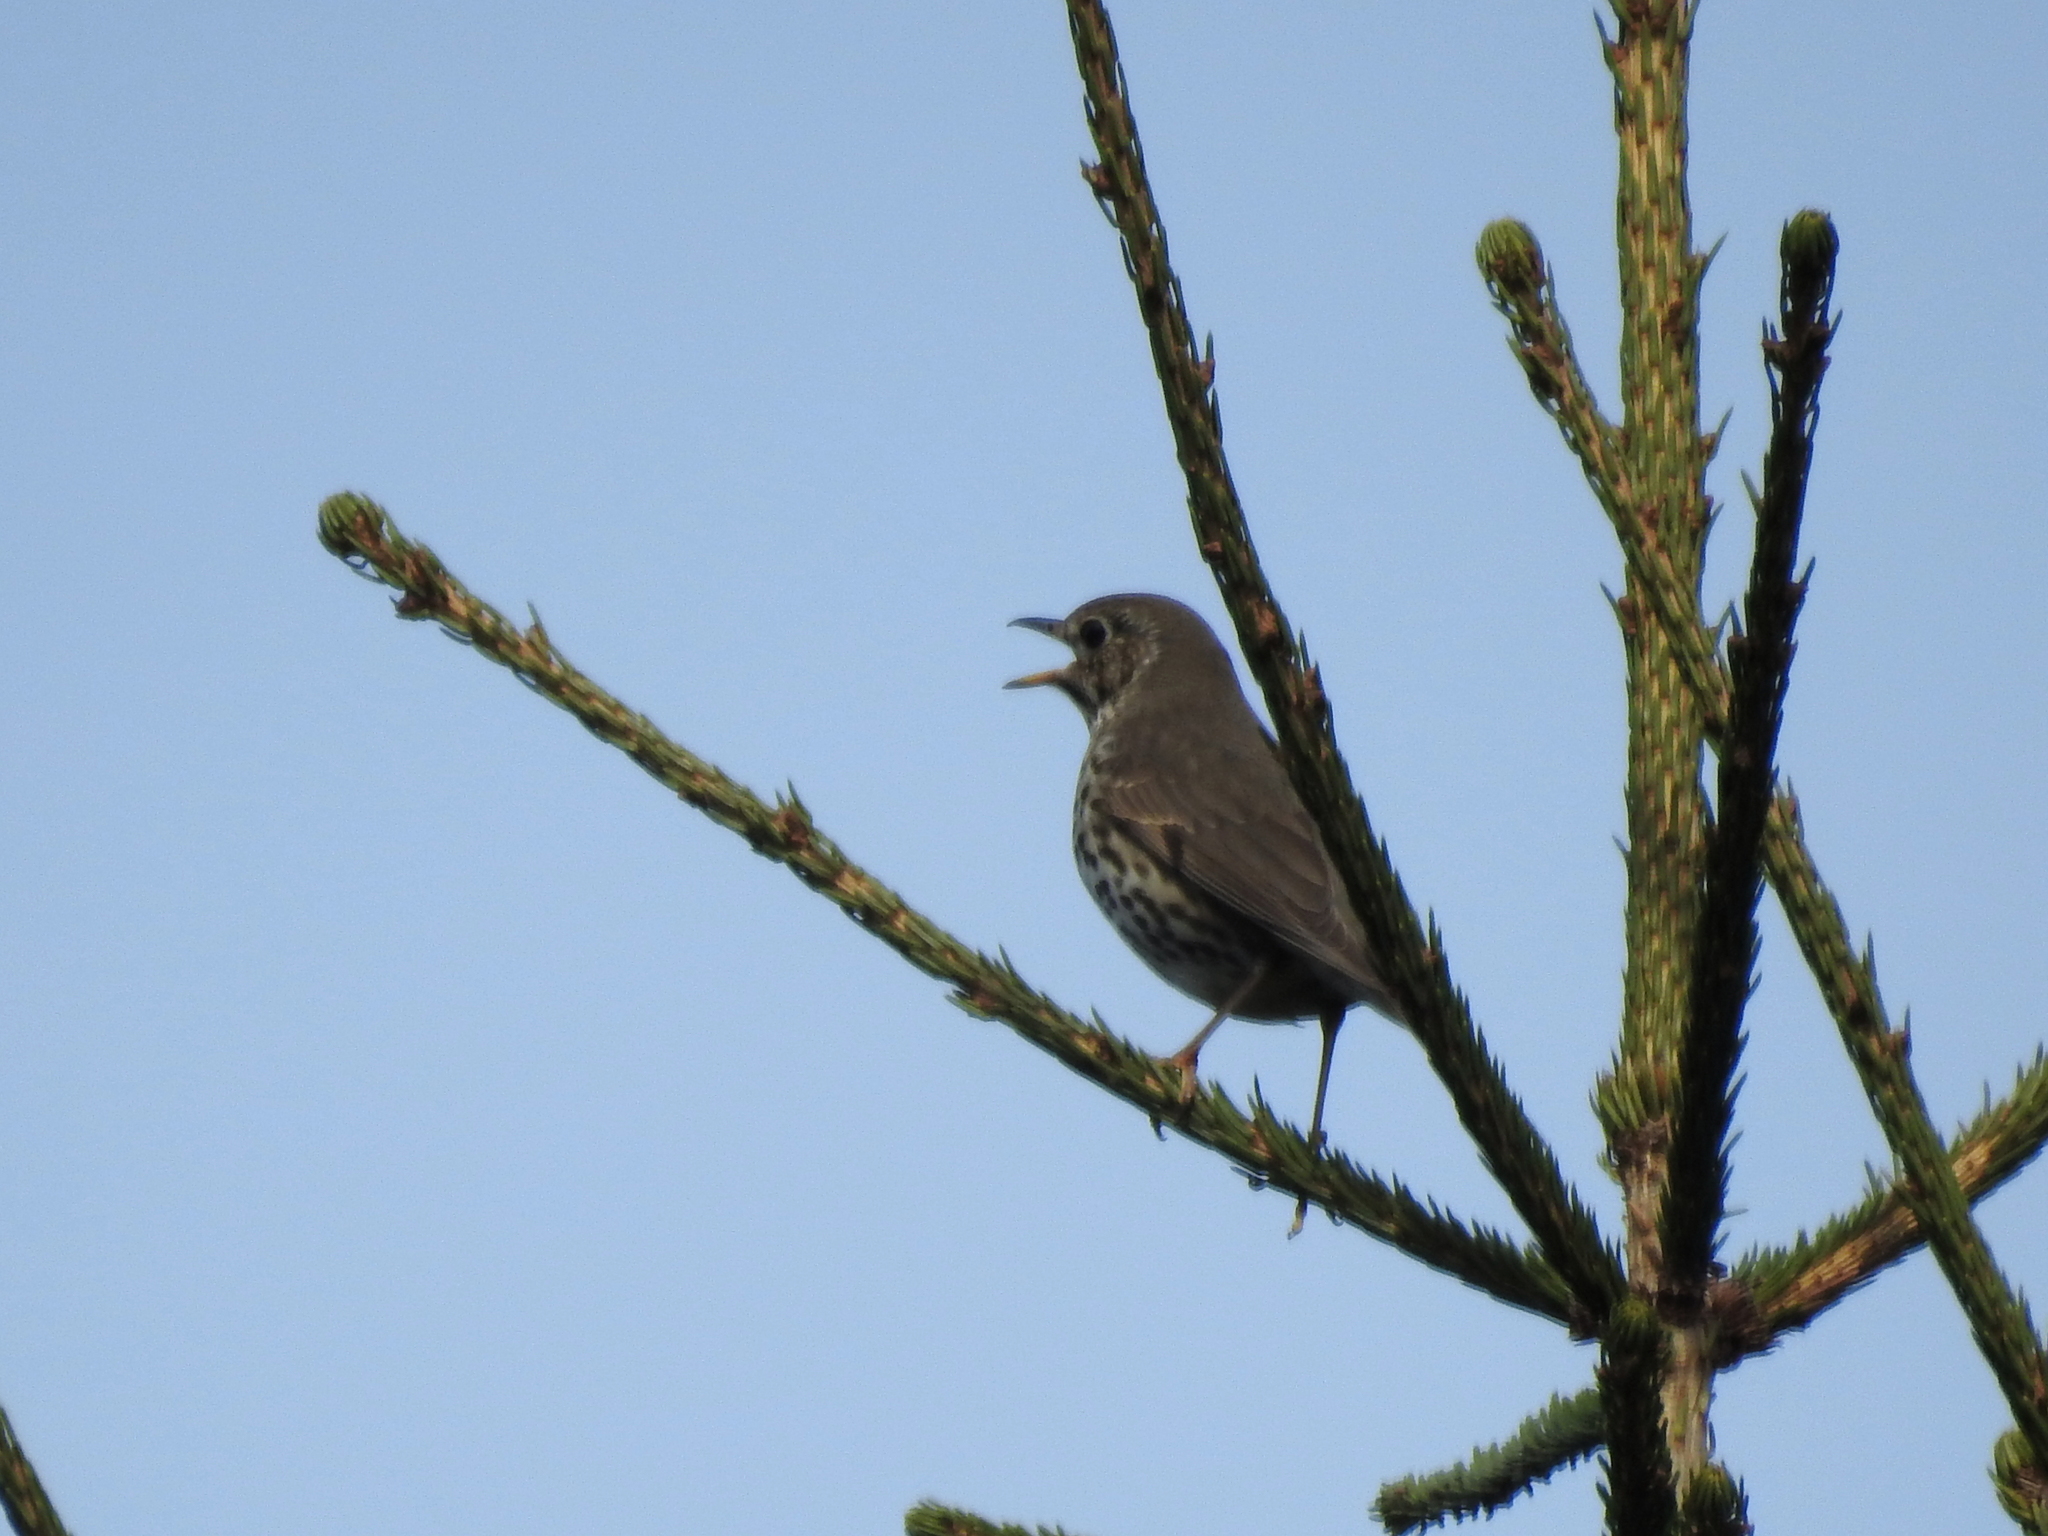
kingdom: Animalia
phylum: Chordata
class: Aves
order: Passeriformes
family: Turdidae
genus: Turdus
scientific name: Turdus philomelos
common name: Song thrush
